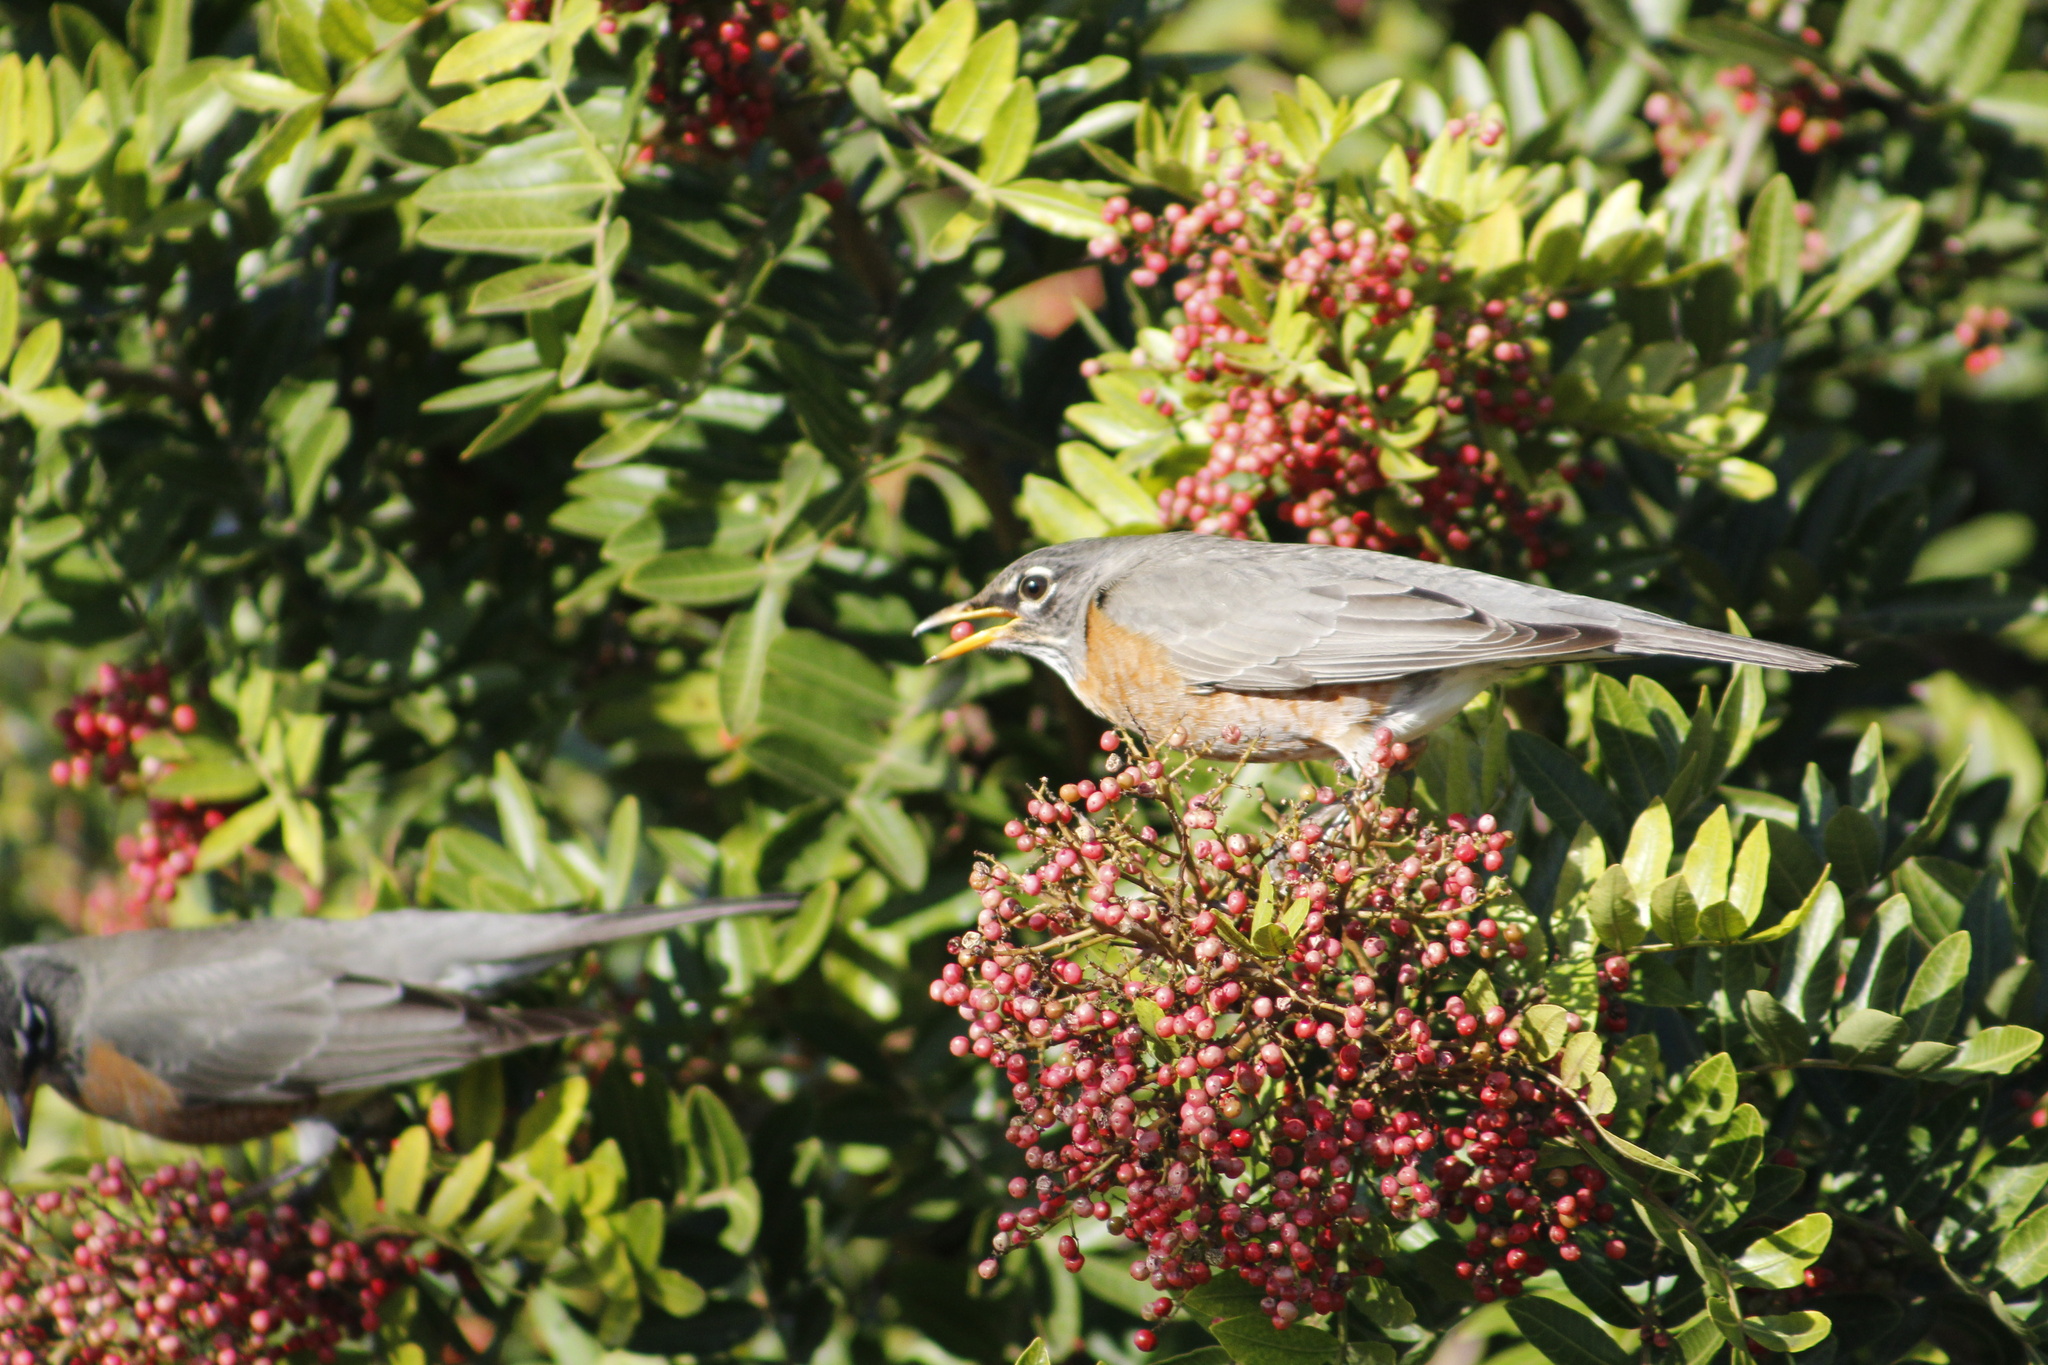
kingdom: Animalia
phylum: Chordata
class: Aves
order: Passeriformes
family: Turdidae
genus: Turdus
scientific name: Turdus migratorius
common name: American robin
